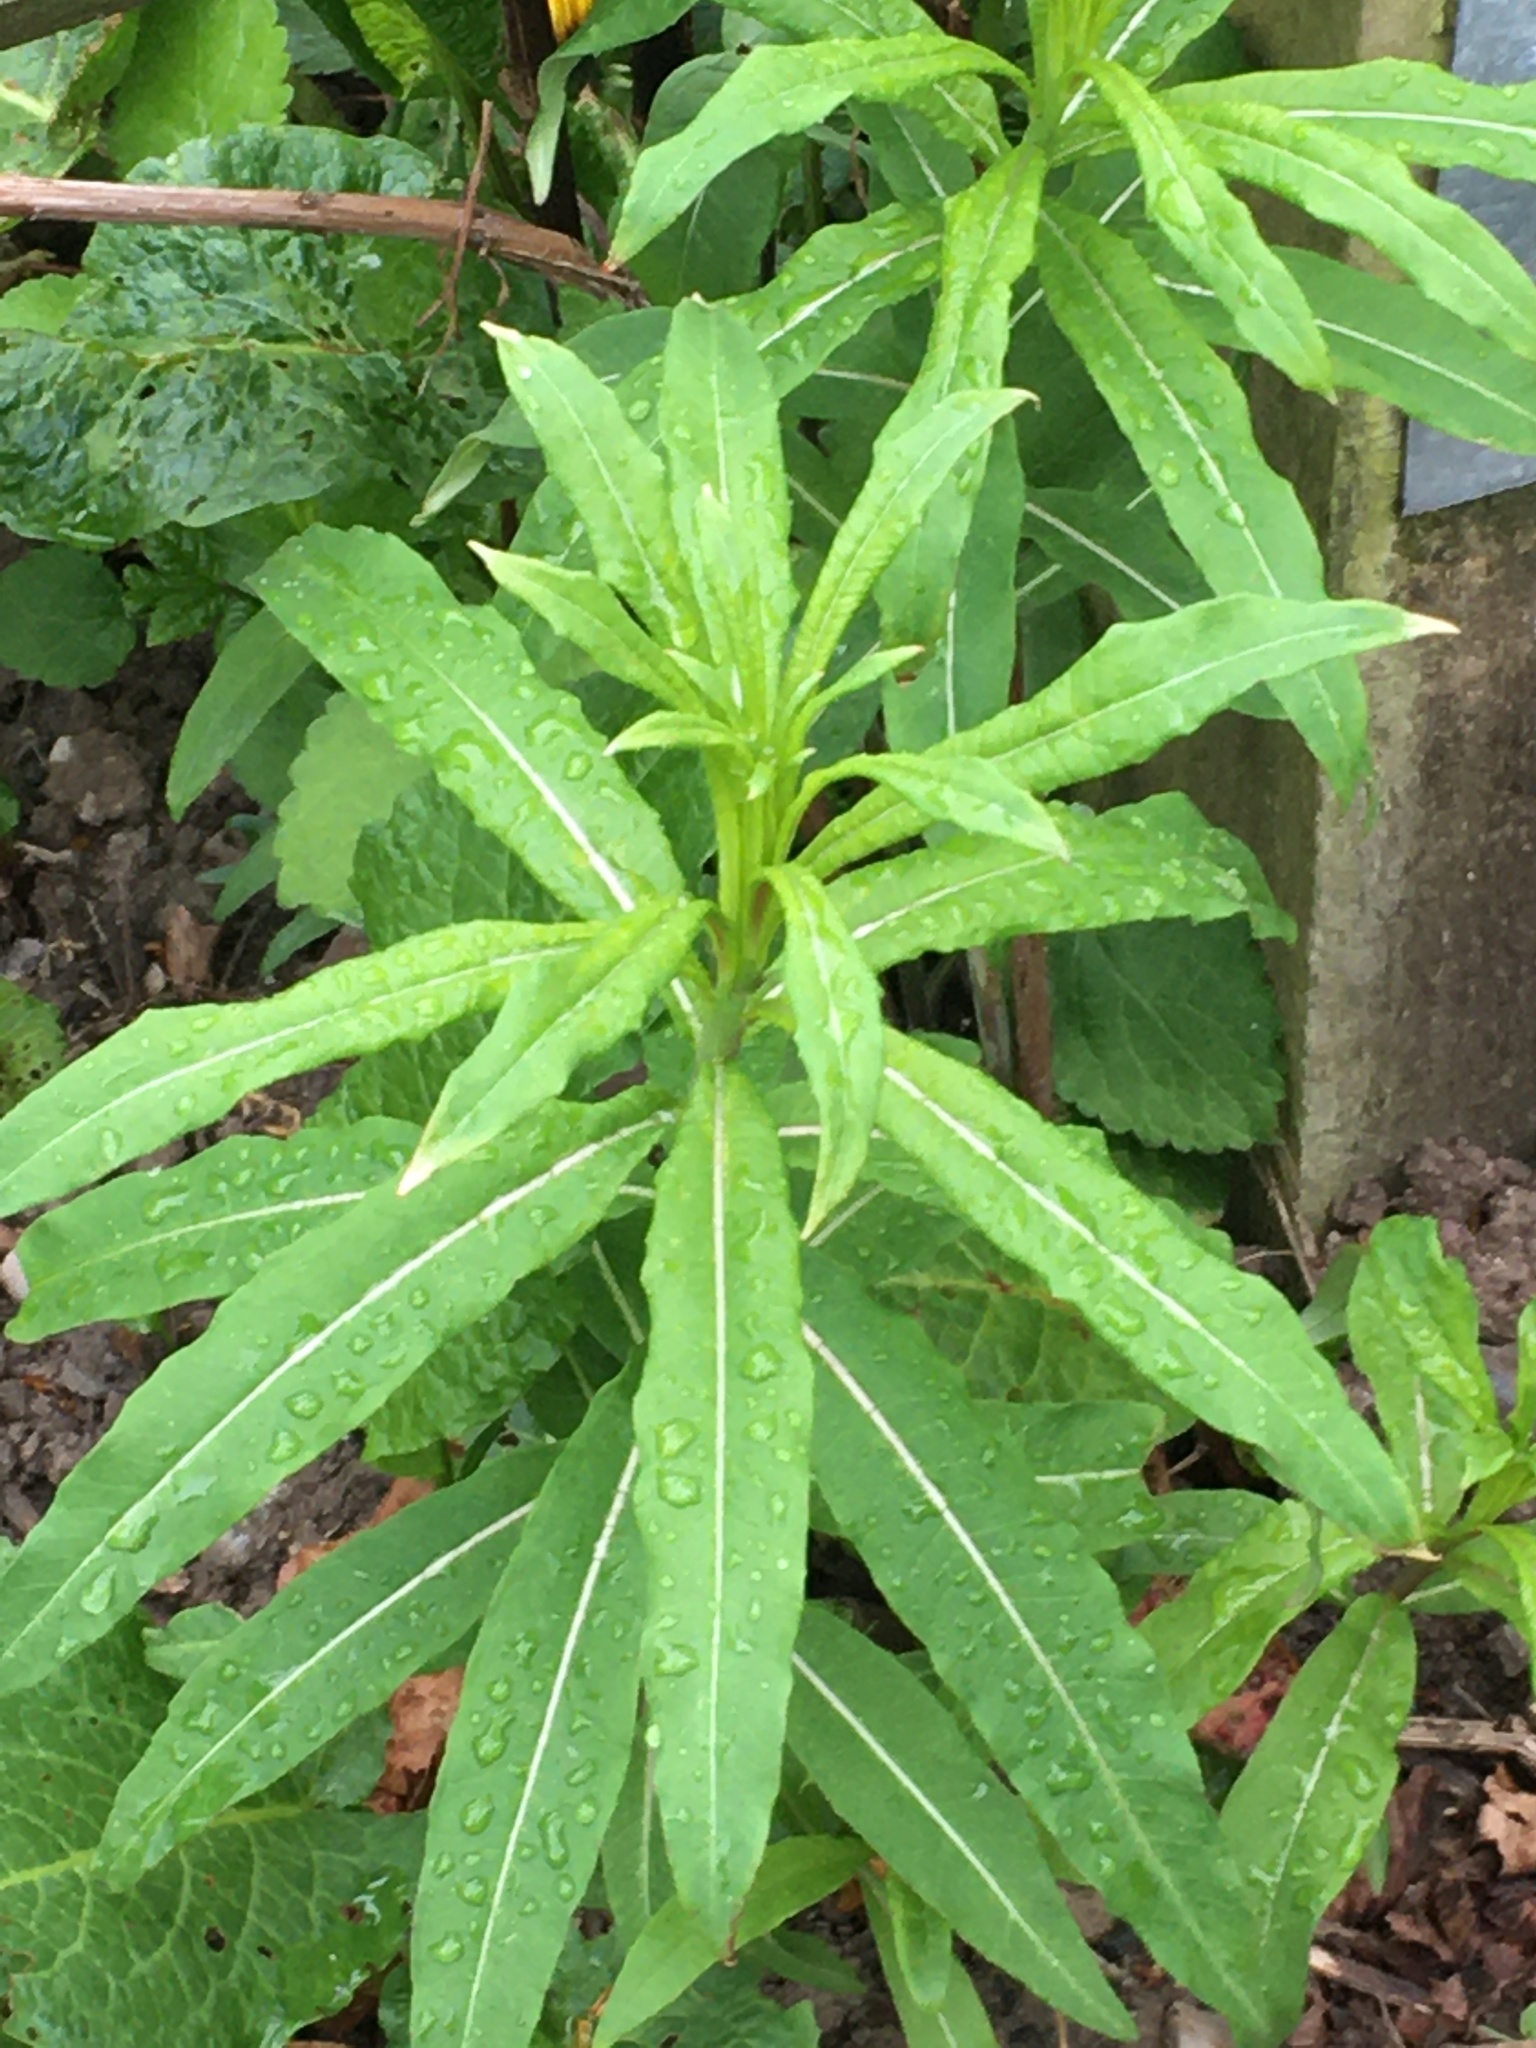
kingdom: Plantae
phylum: Tracheophyta
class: Magnoliopsida
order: Myrtales
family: Onagraceae
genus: Chamaenerion
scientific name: Chamaenerion angustifolium
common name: Fireweed
